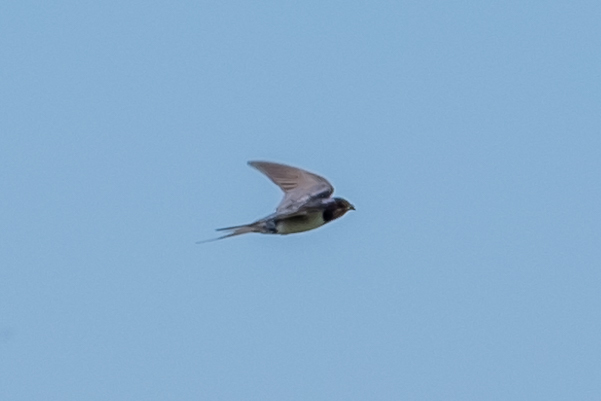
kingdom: Animalia
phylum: Chordata
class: Aves
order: Passeriformes
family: Hirundinidae
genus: Hirundo
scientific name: Hirundo rustica
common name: Barn swallow
